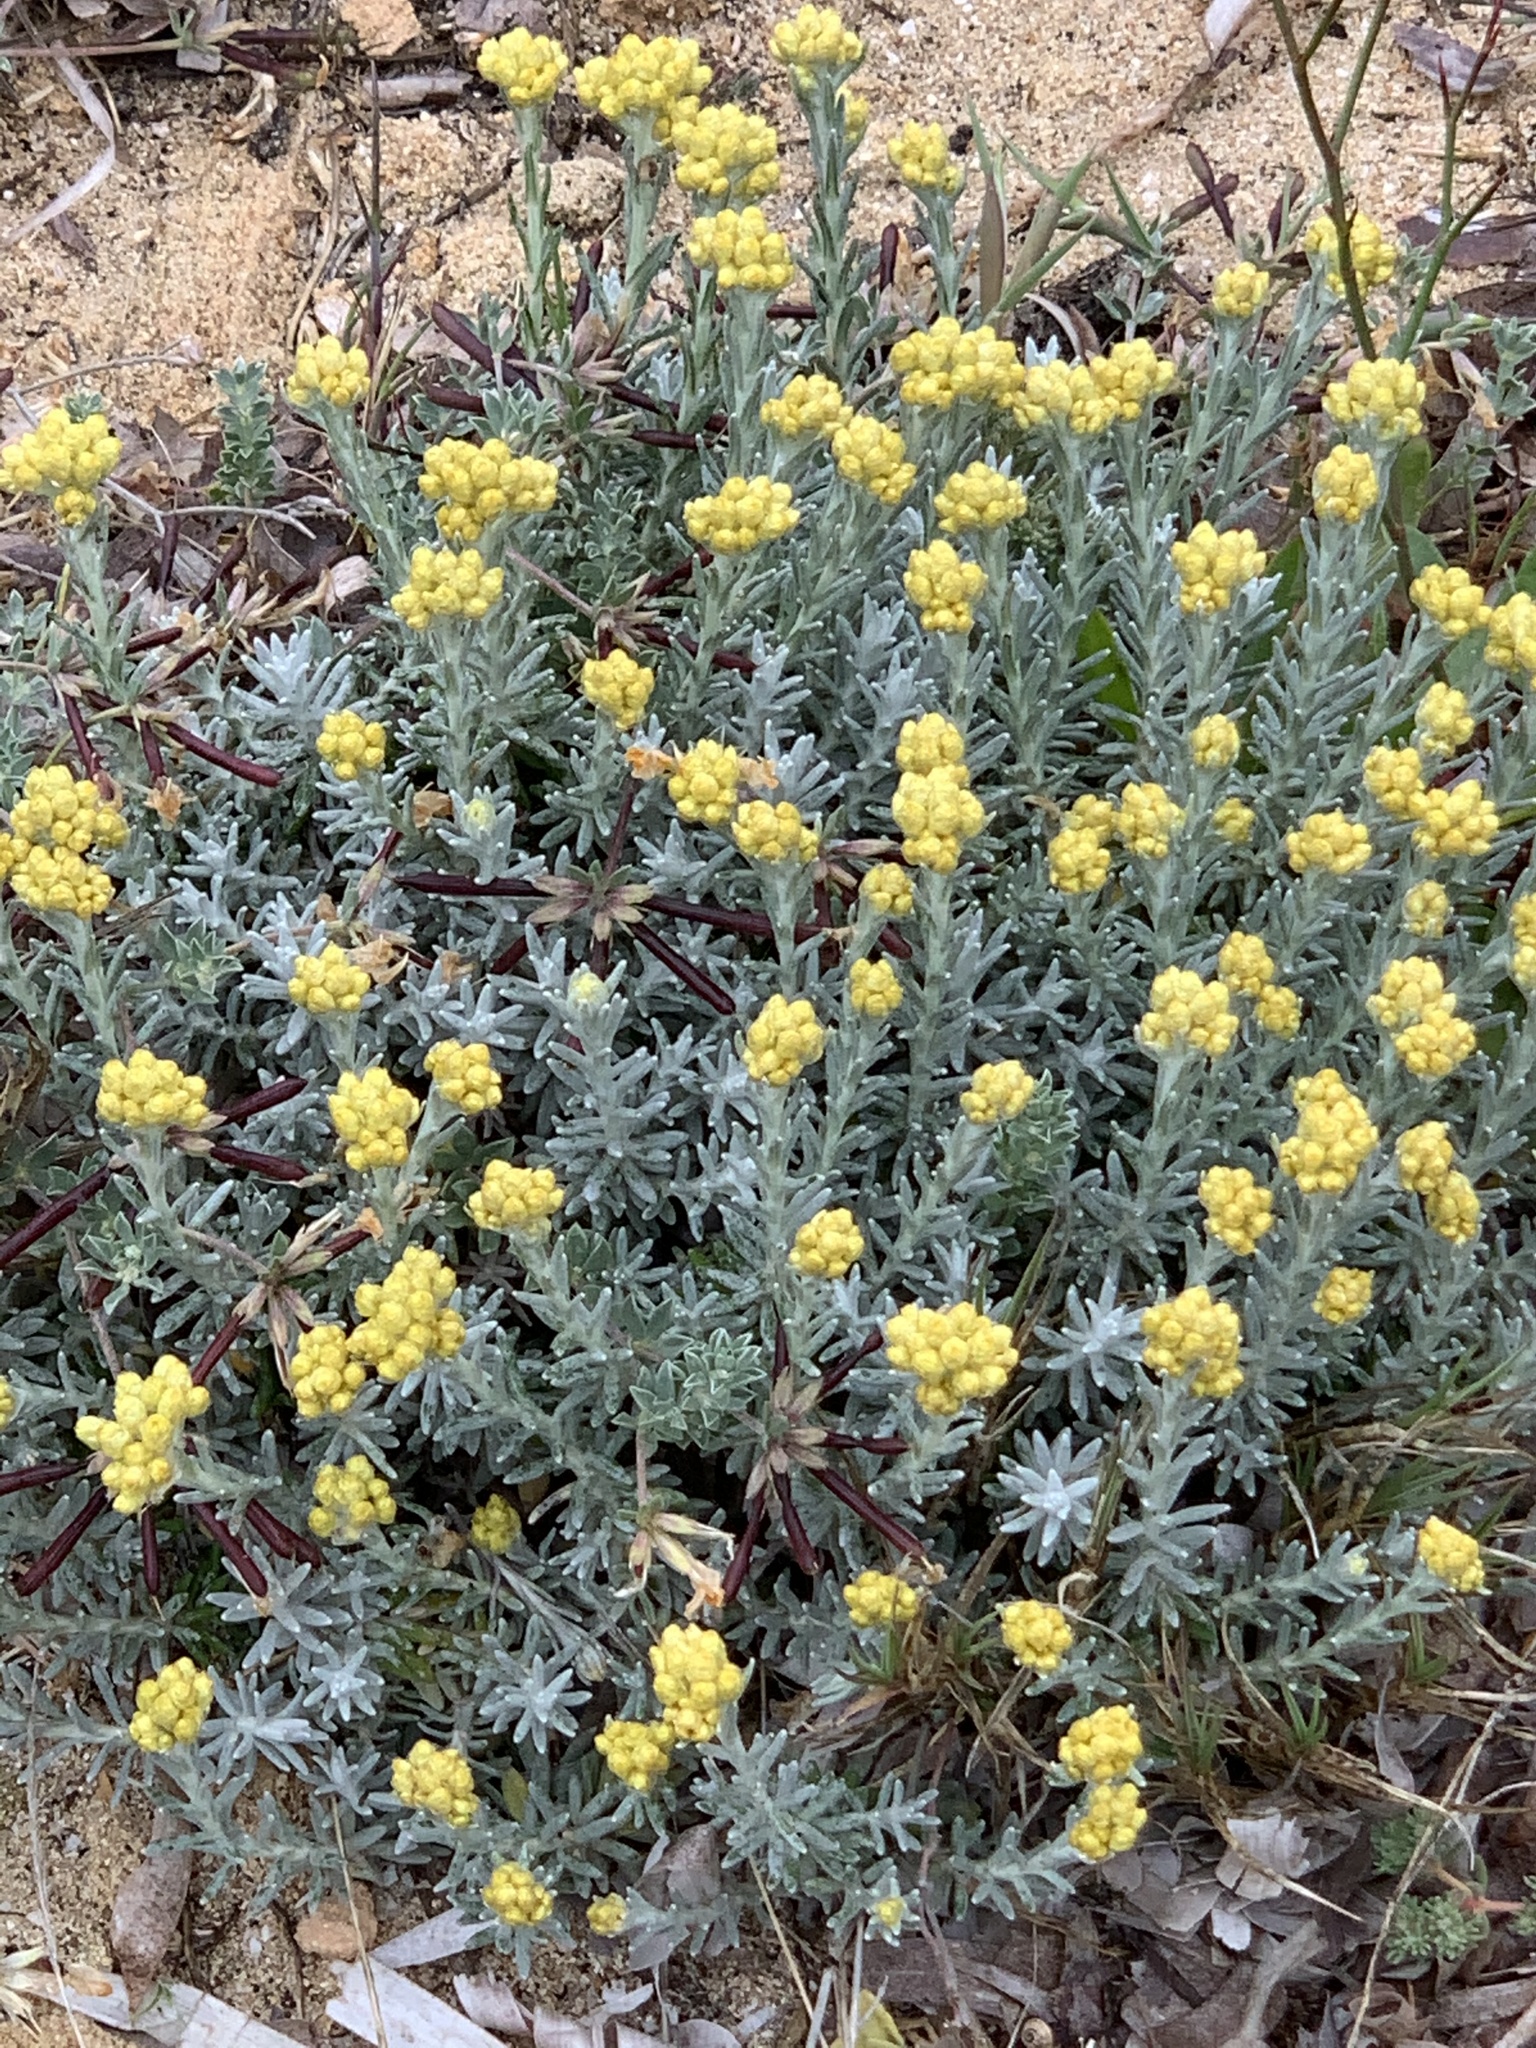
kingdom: Plantae
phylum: Tracheophyta
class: Magnoliopsida
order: Asterales
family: Asteraceae
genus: Helichrysum
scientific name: Helichrysum stoechas
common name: Goldilocks
